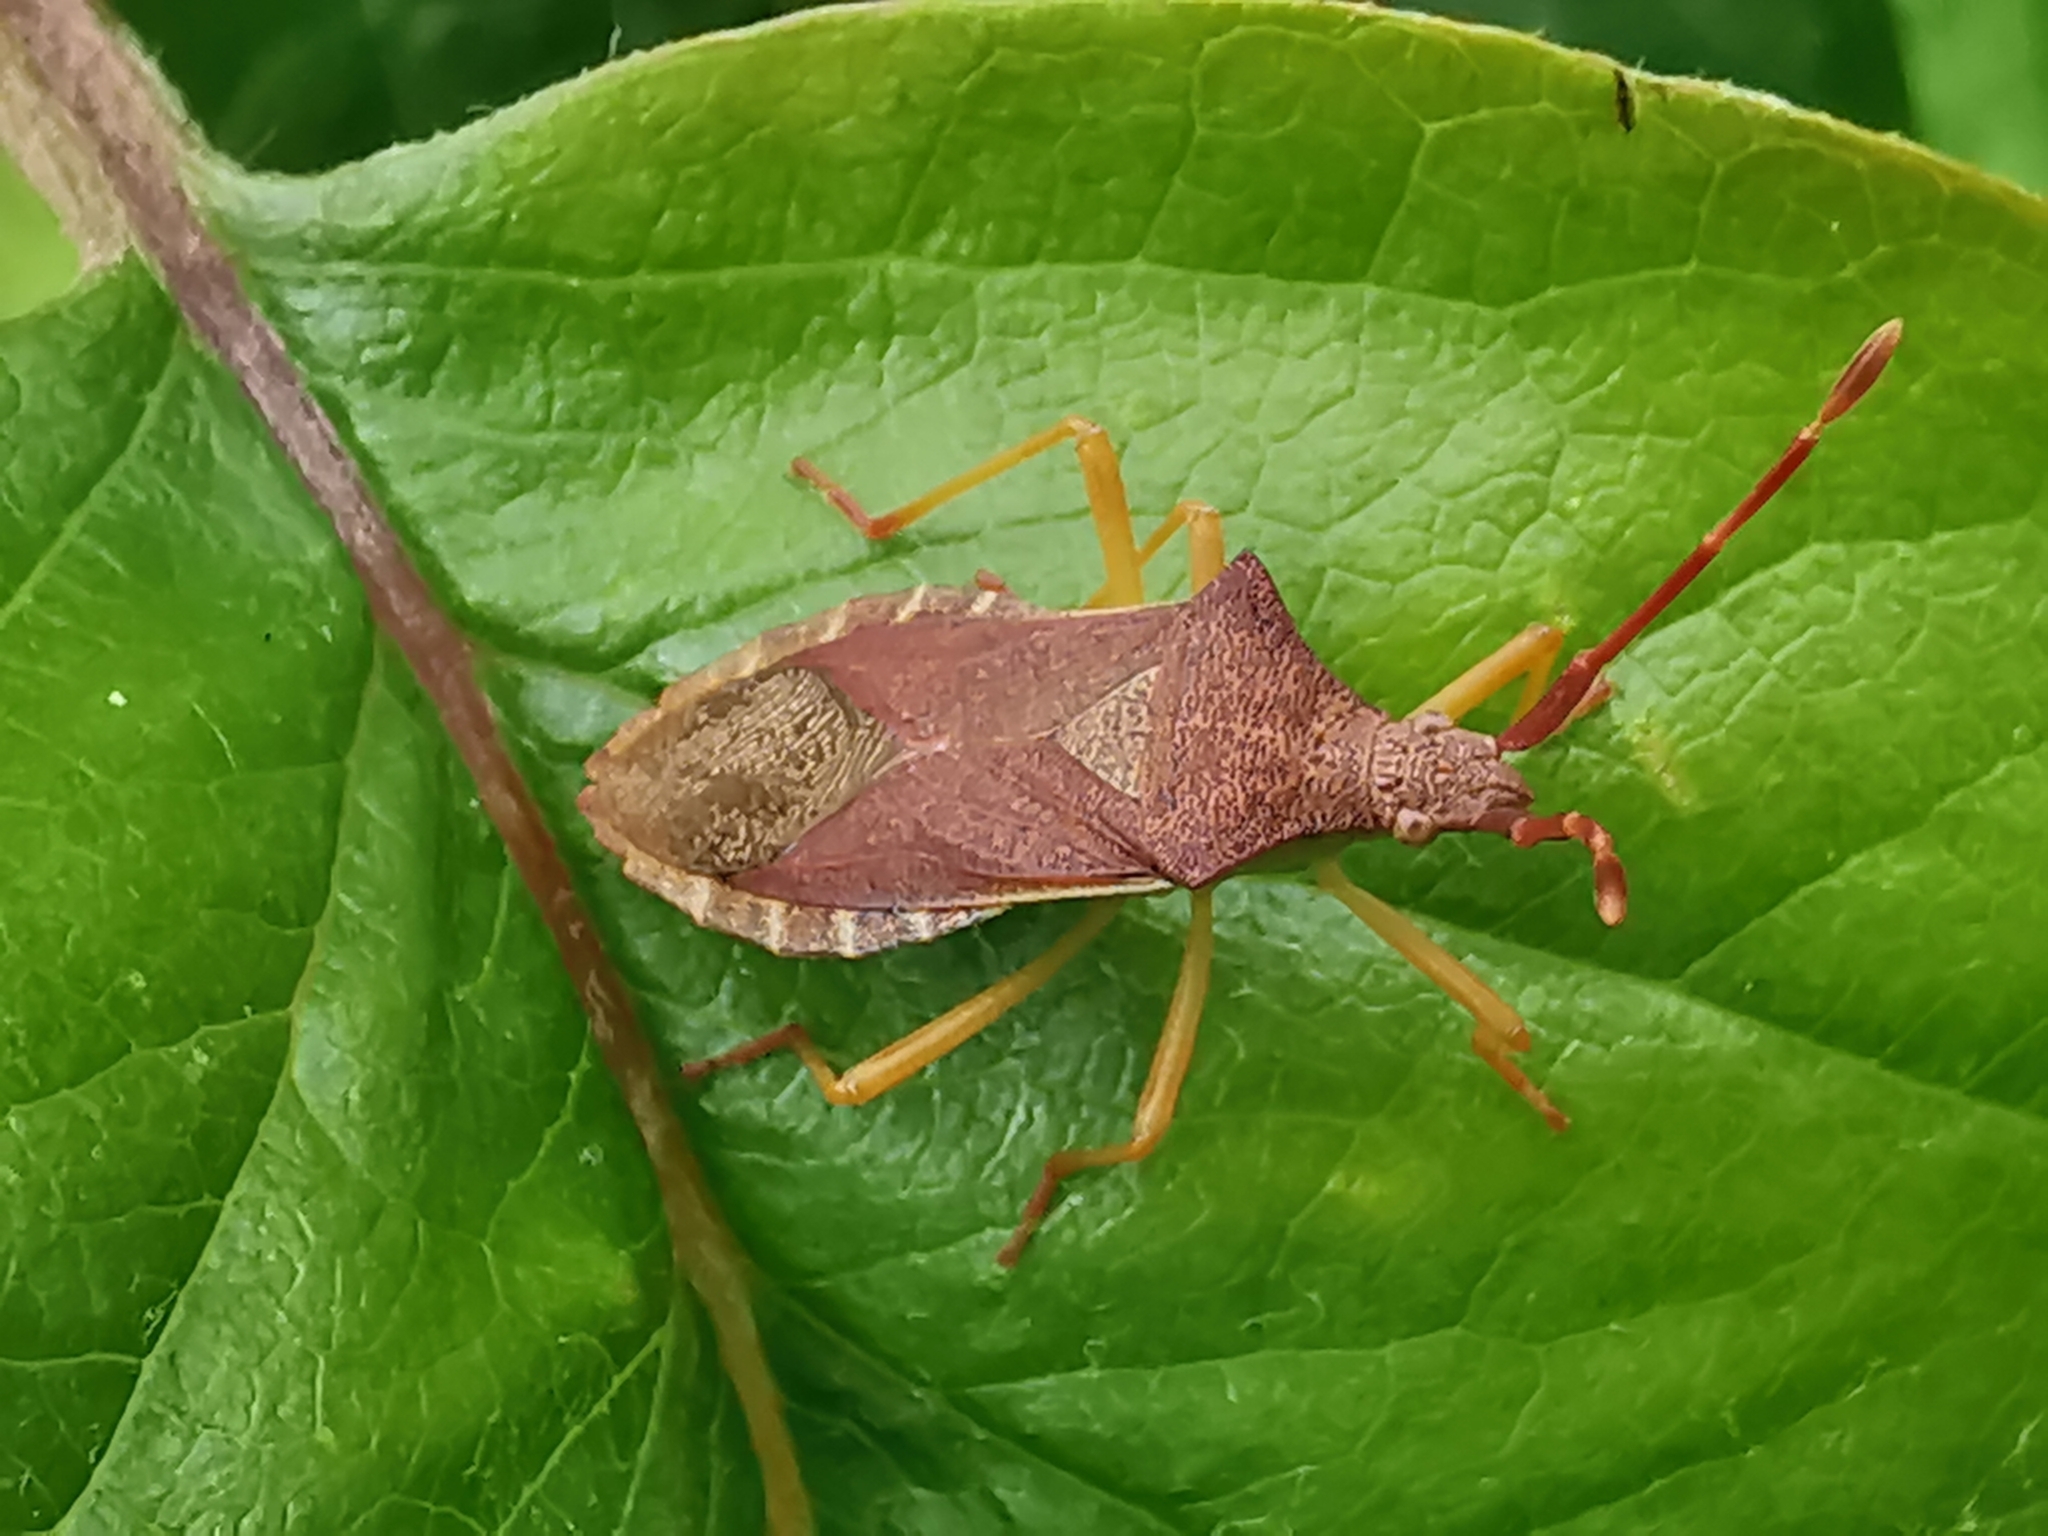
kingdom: Animalia
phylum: Arthropoda
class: Insecta
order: Hemiptera
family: Coreidae
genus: Gonocerus
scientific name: Gonocerus acuteangulatus
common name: Box bug
